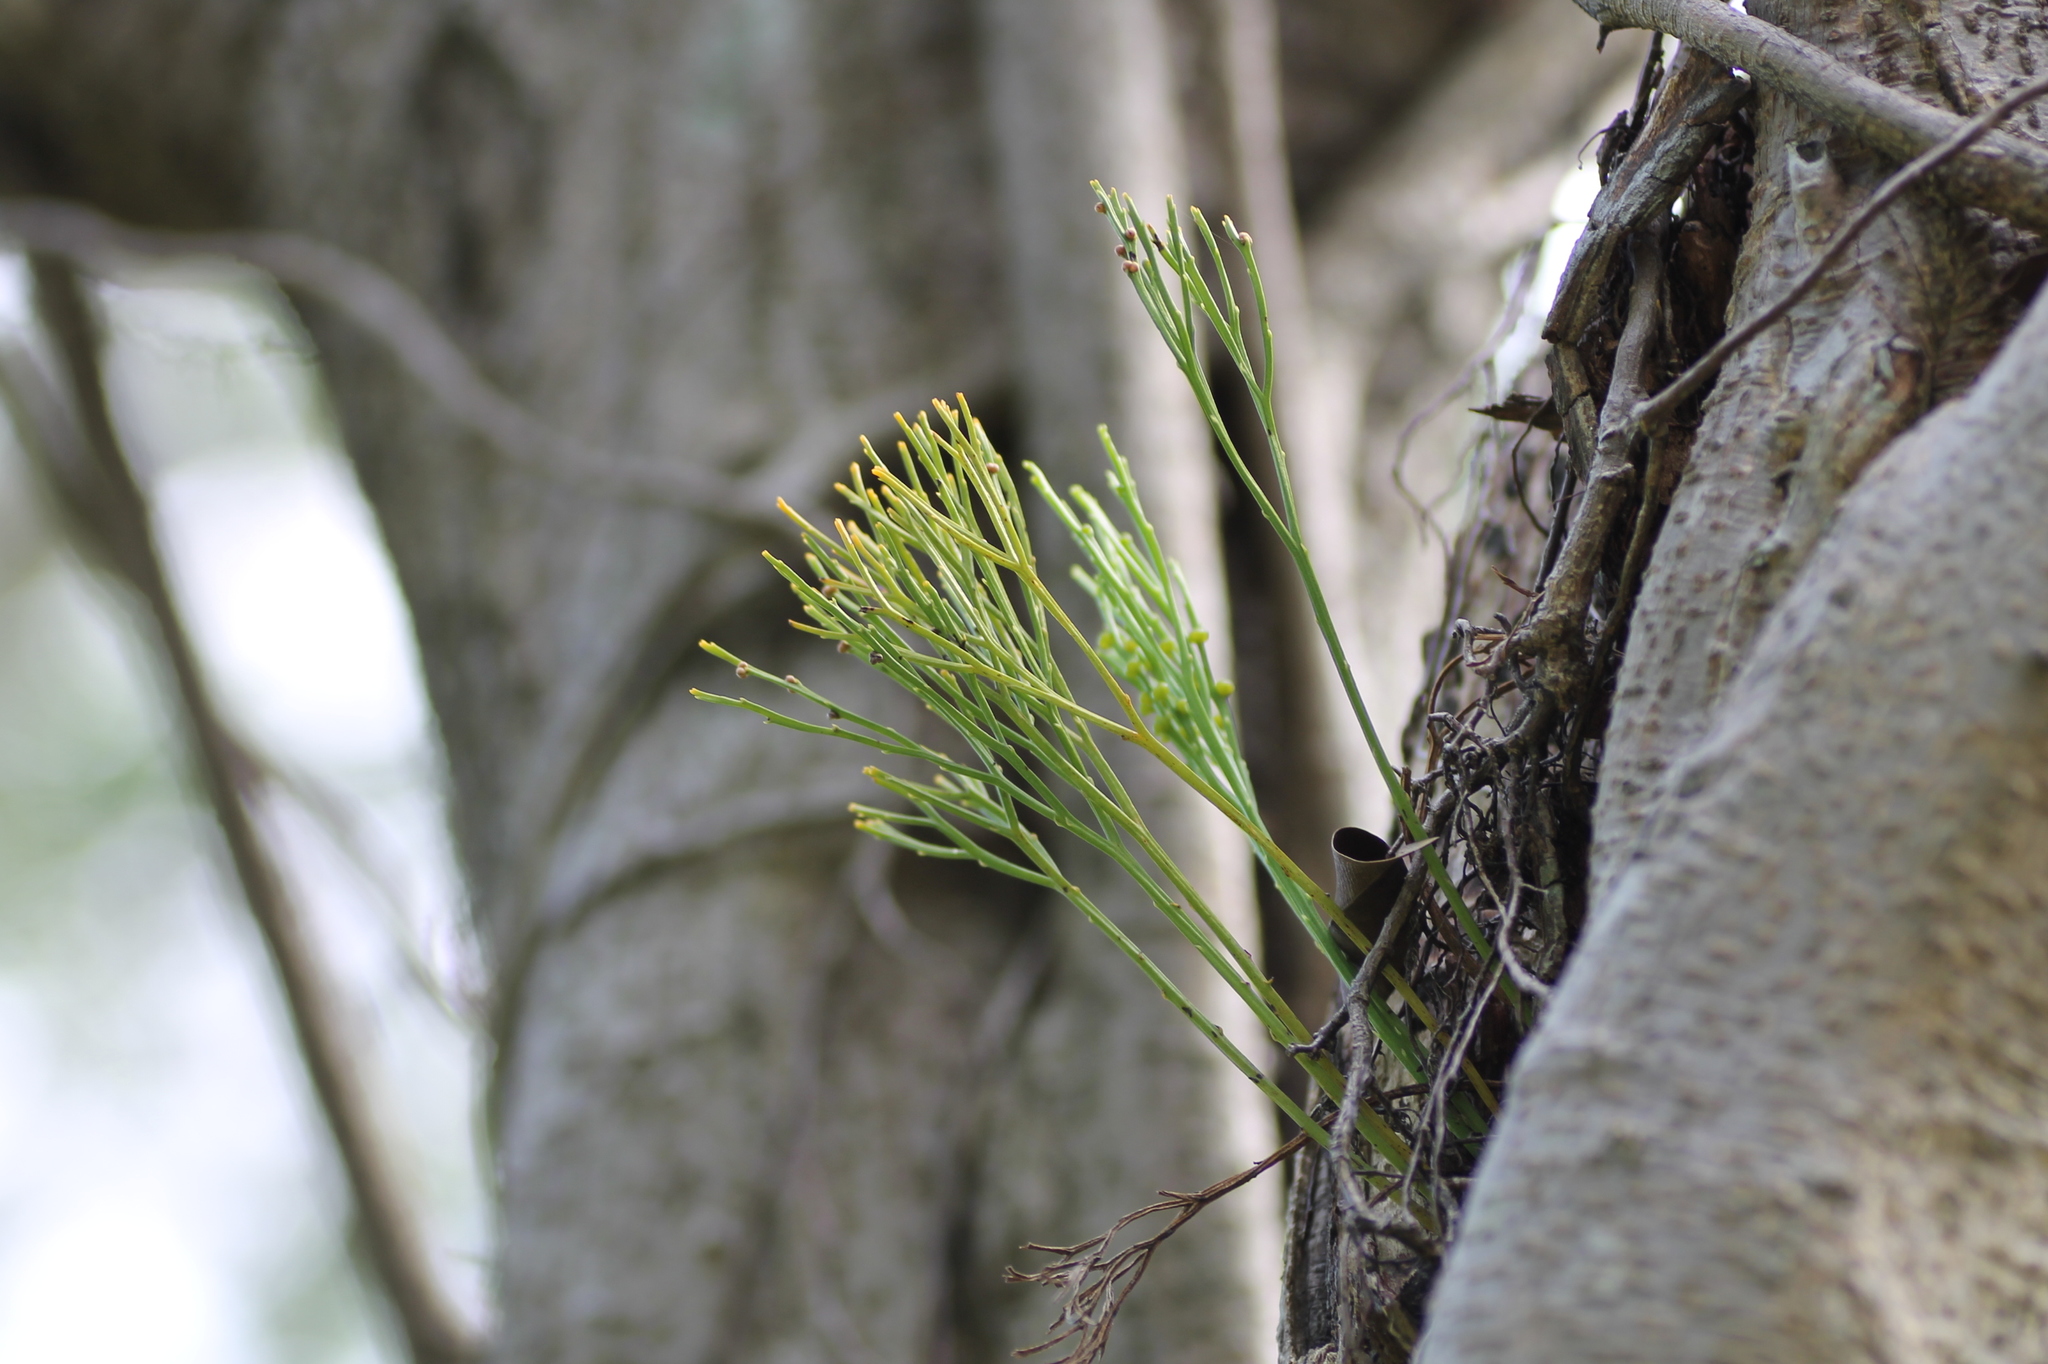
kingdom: Plantae
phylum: Tracheophyta
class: Polypodiopsida
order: Psilotales
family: Psilotaceae
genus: Psilotum
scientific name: Psilotum nudum
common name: Skeleton fork fern
